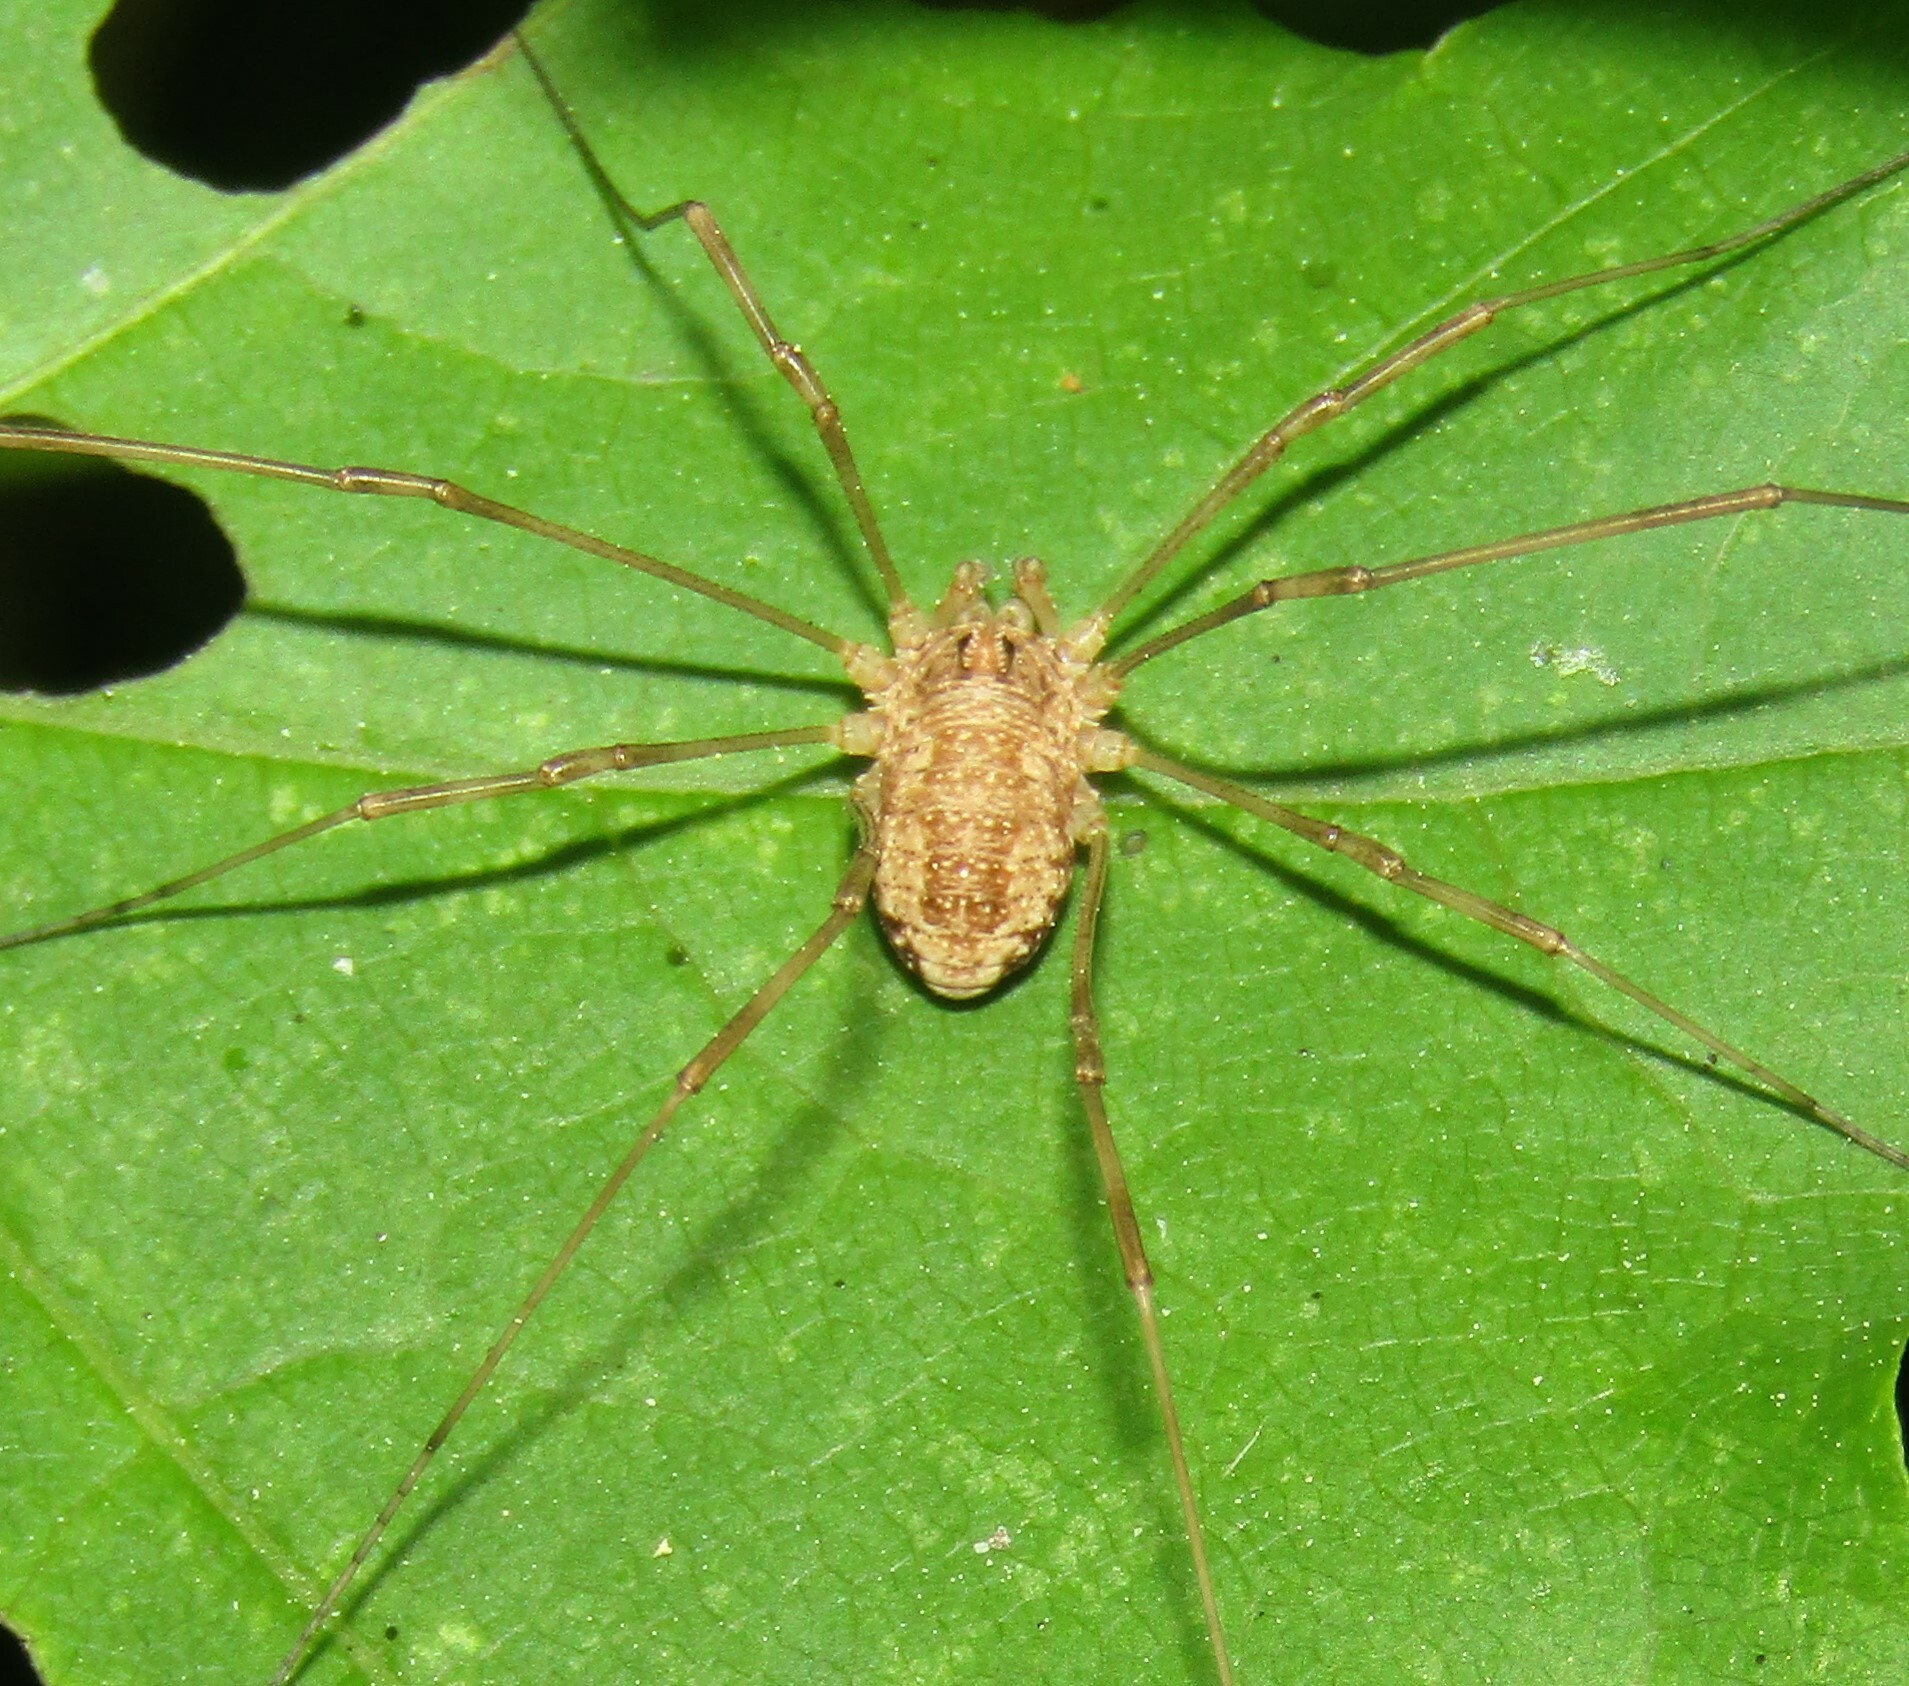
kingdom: Animalia
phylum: Arthropoda
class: Arachnida
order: Opiliones
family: Phalangiidae
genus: Rilaena
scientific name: Rilaena triangularis
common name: Spring harvestman
